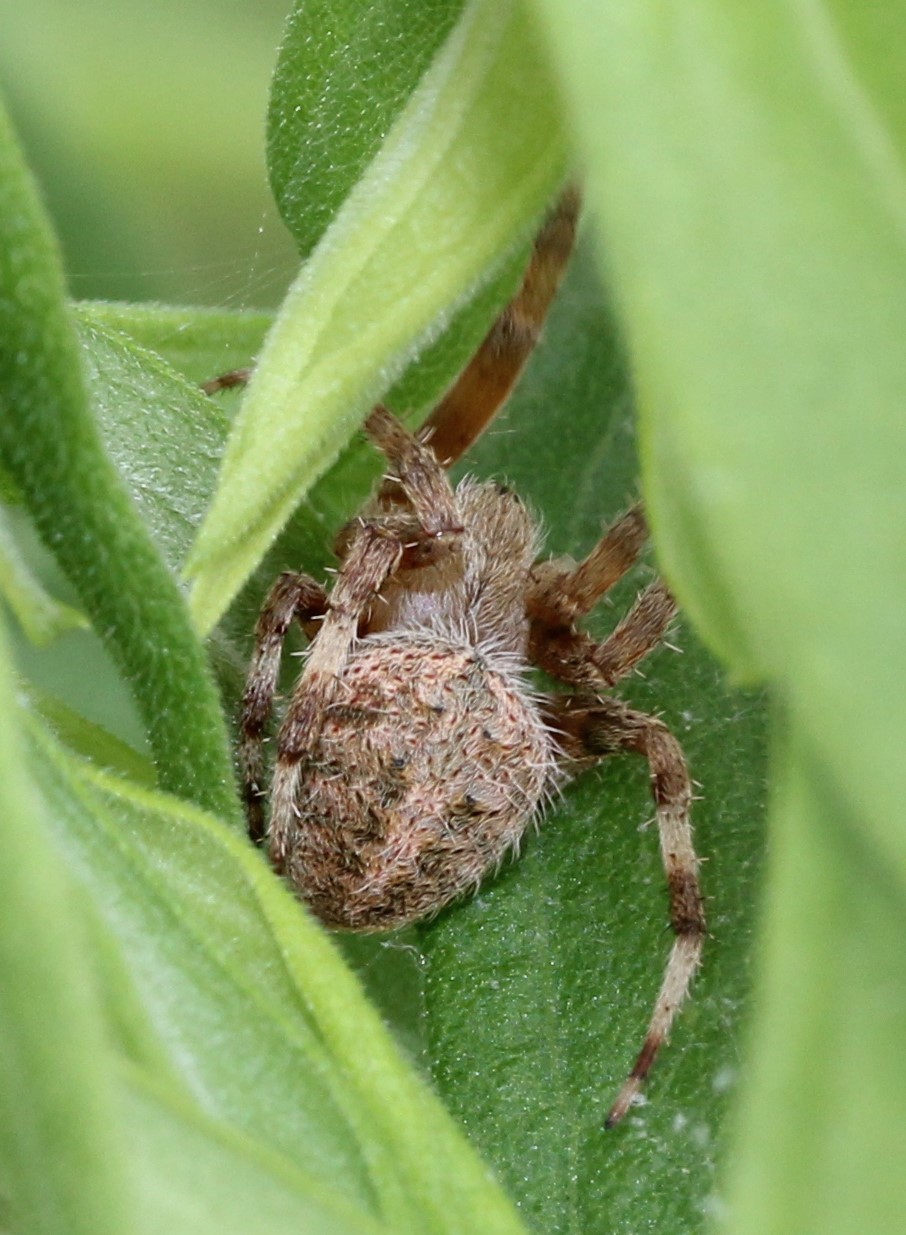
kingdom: Animalia
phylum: Arthropoda
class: Arachnida
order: Araneae
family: Araneidae
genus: Neoscona
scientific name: Neoscona crucifera
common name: Spotted orbweaver
